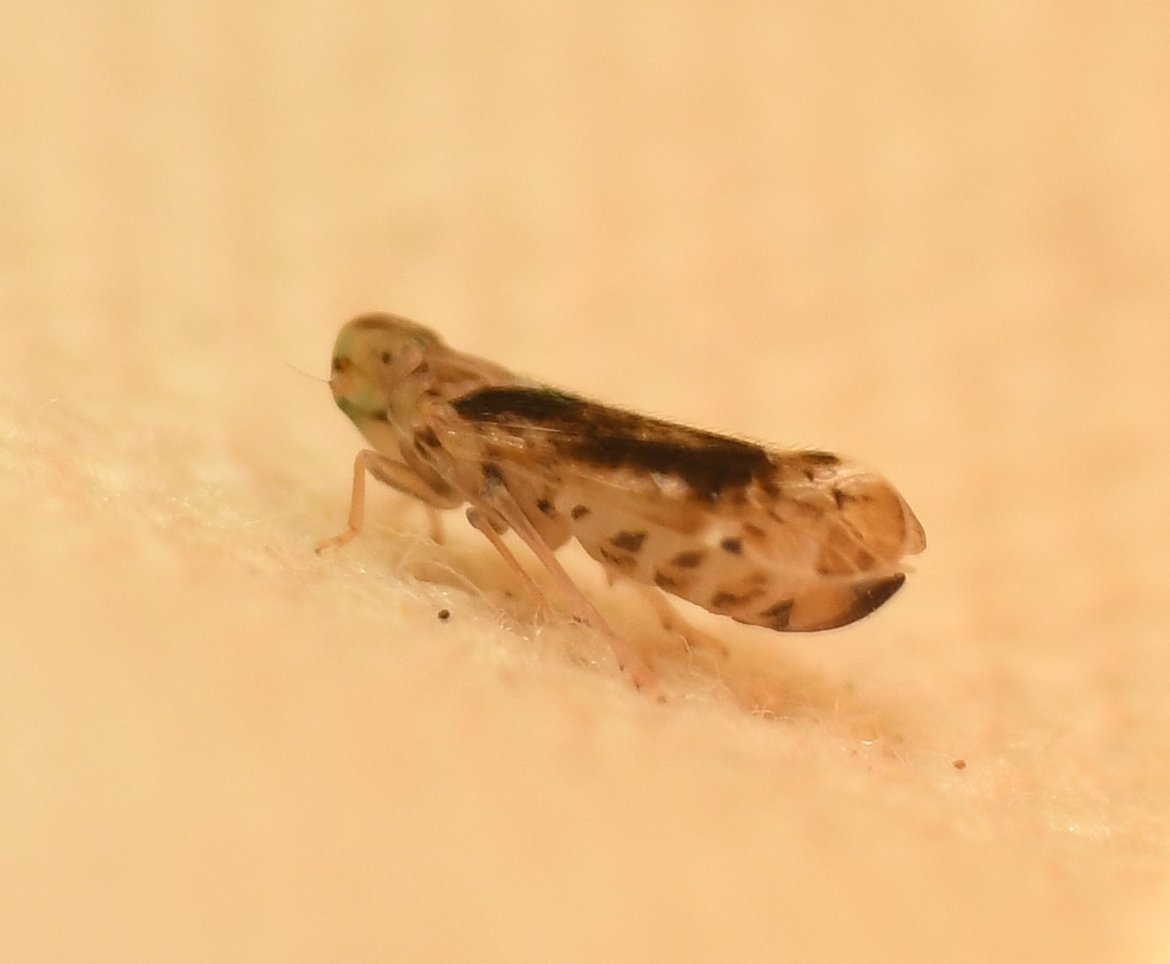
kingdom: Animalia
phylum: Arthropoda
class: Insecta
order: Hemiptera
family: Cixiidae
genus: Haplaxius
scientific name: Haplaxius lunatus
